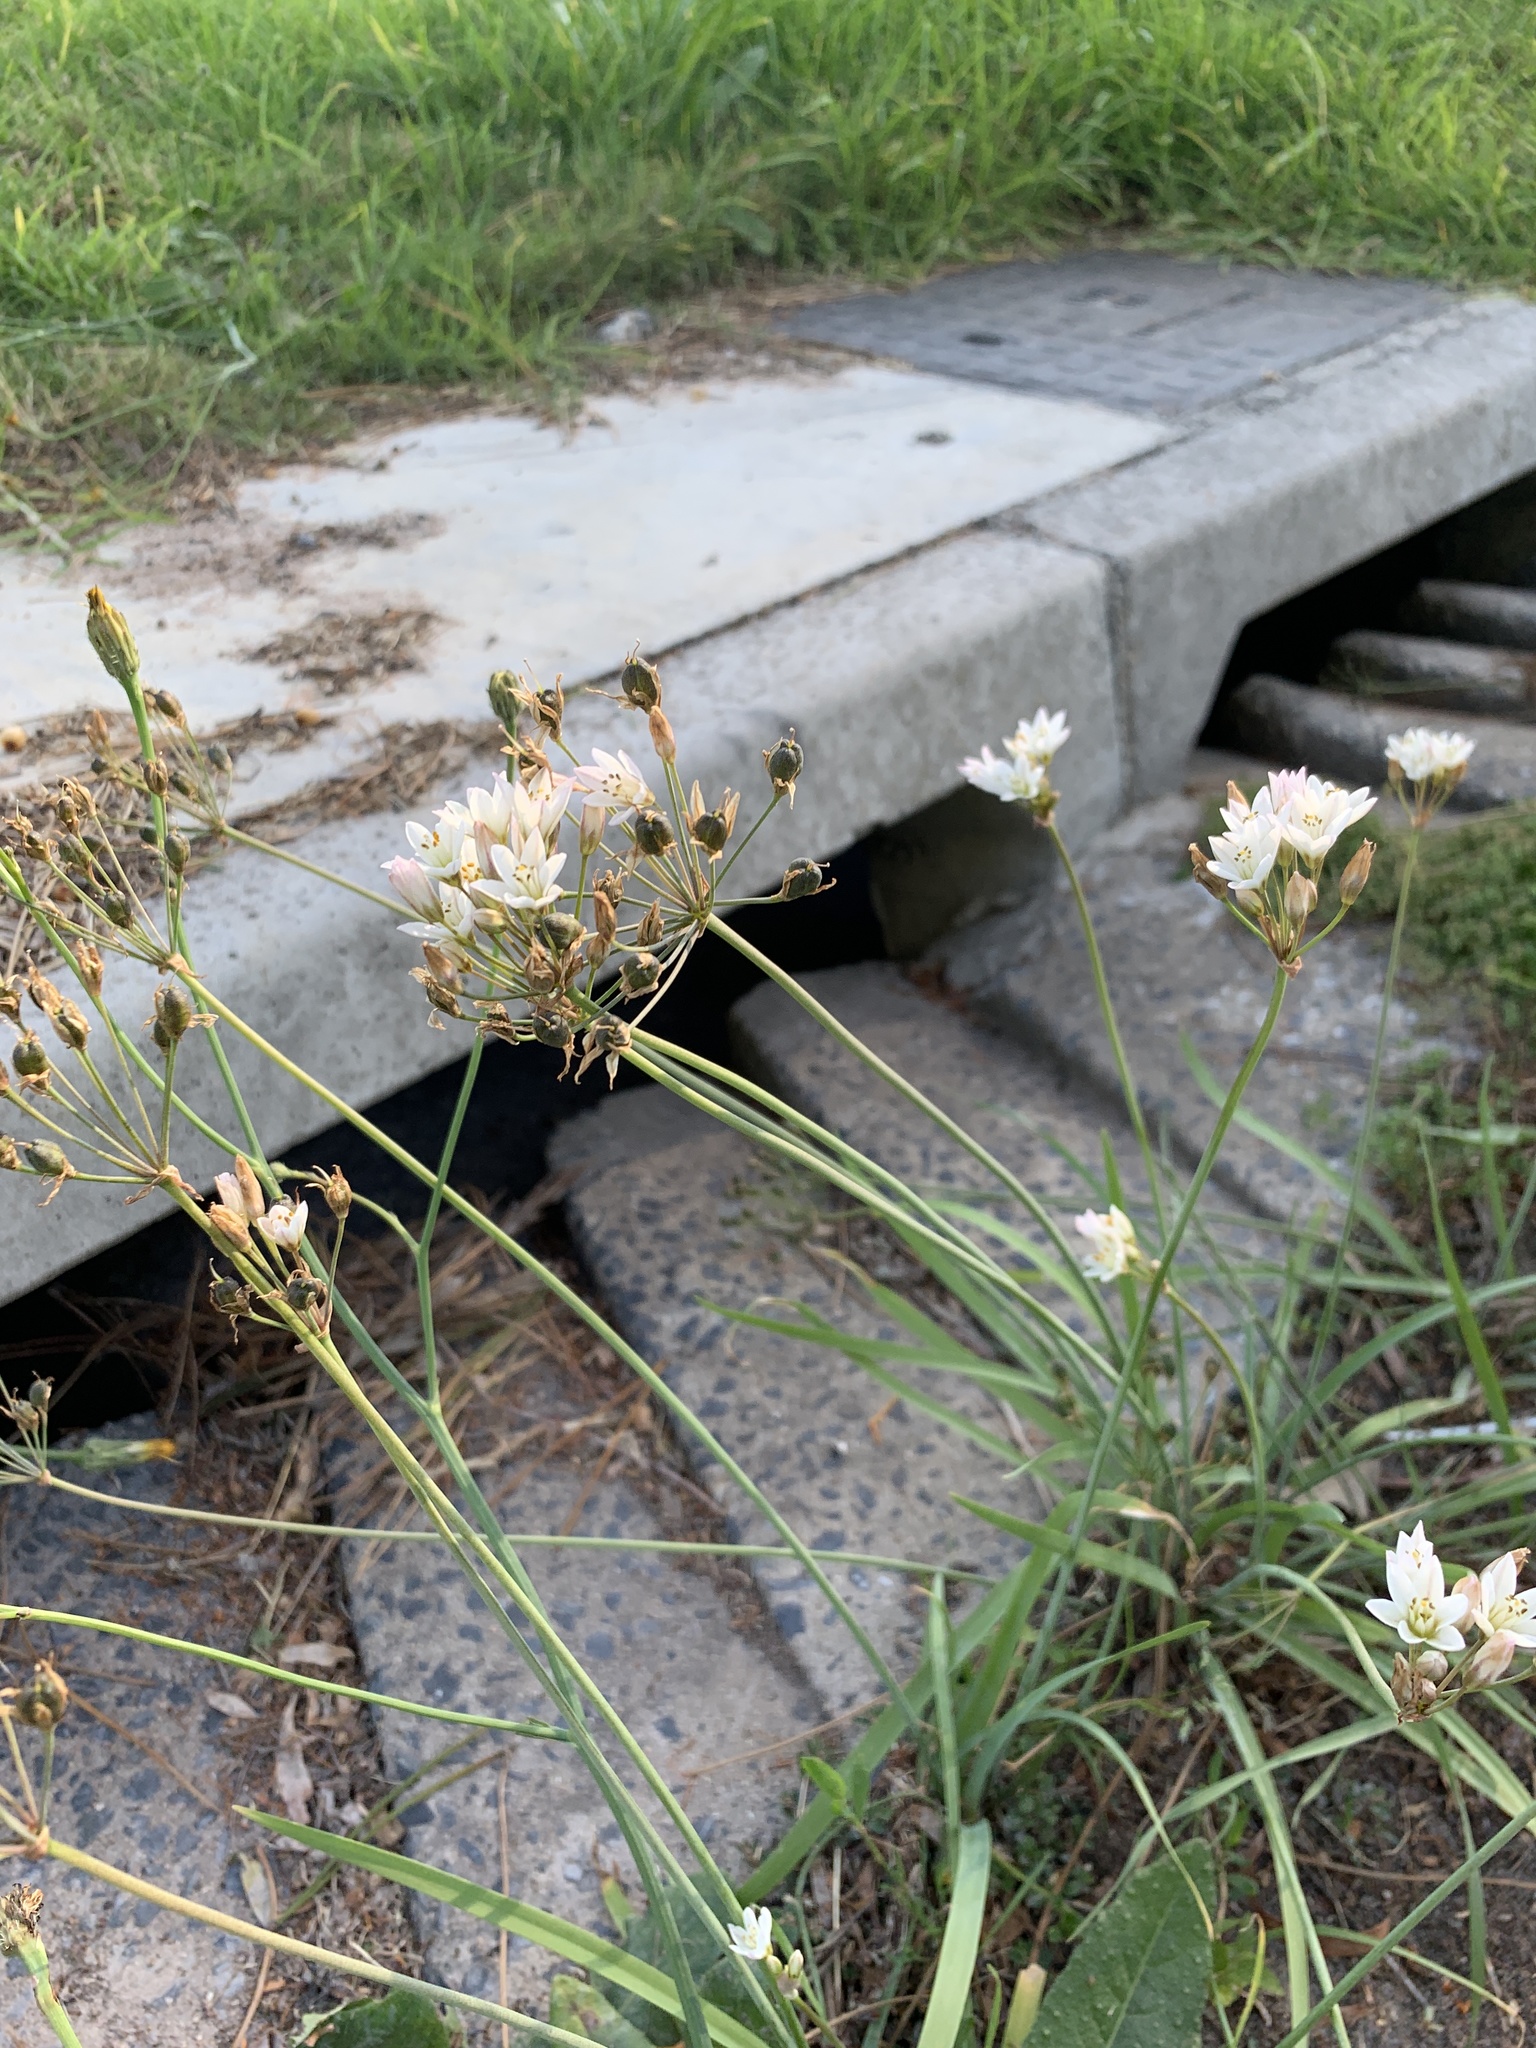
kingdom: Plantae
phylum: Tracheophyta
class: Liliopsida
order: Asparagales
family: Amaryllidaceae
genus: Nothoscordum
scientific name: Nothoscordum gracile
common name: Slender false garlic
